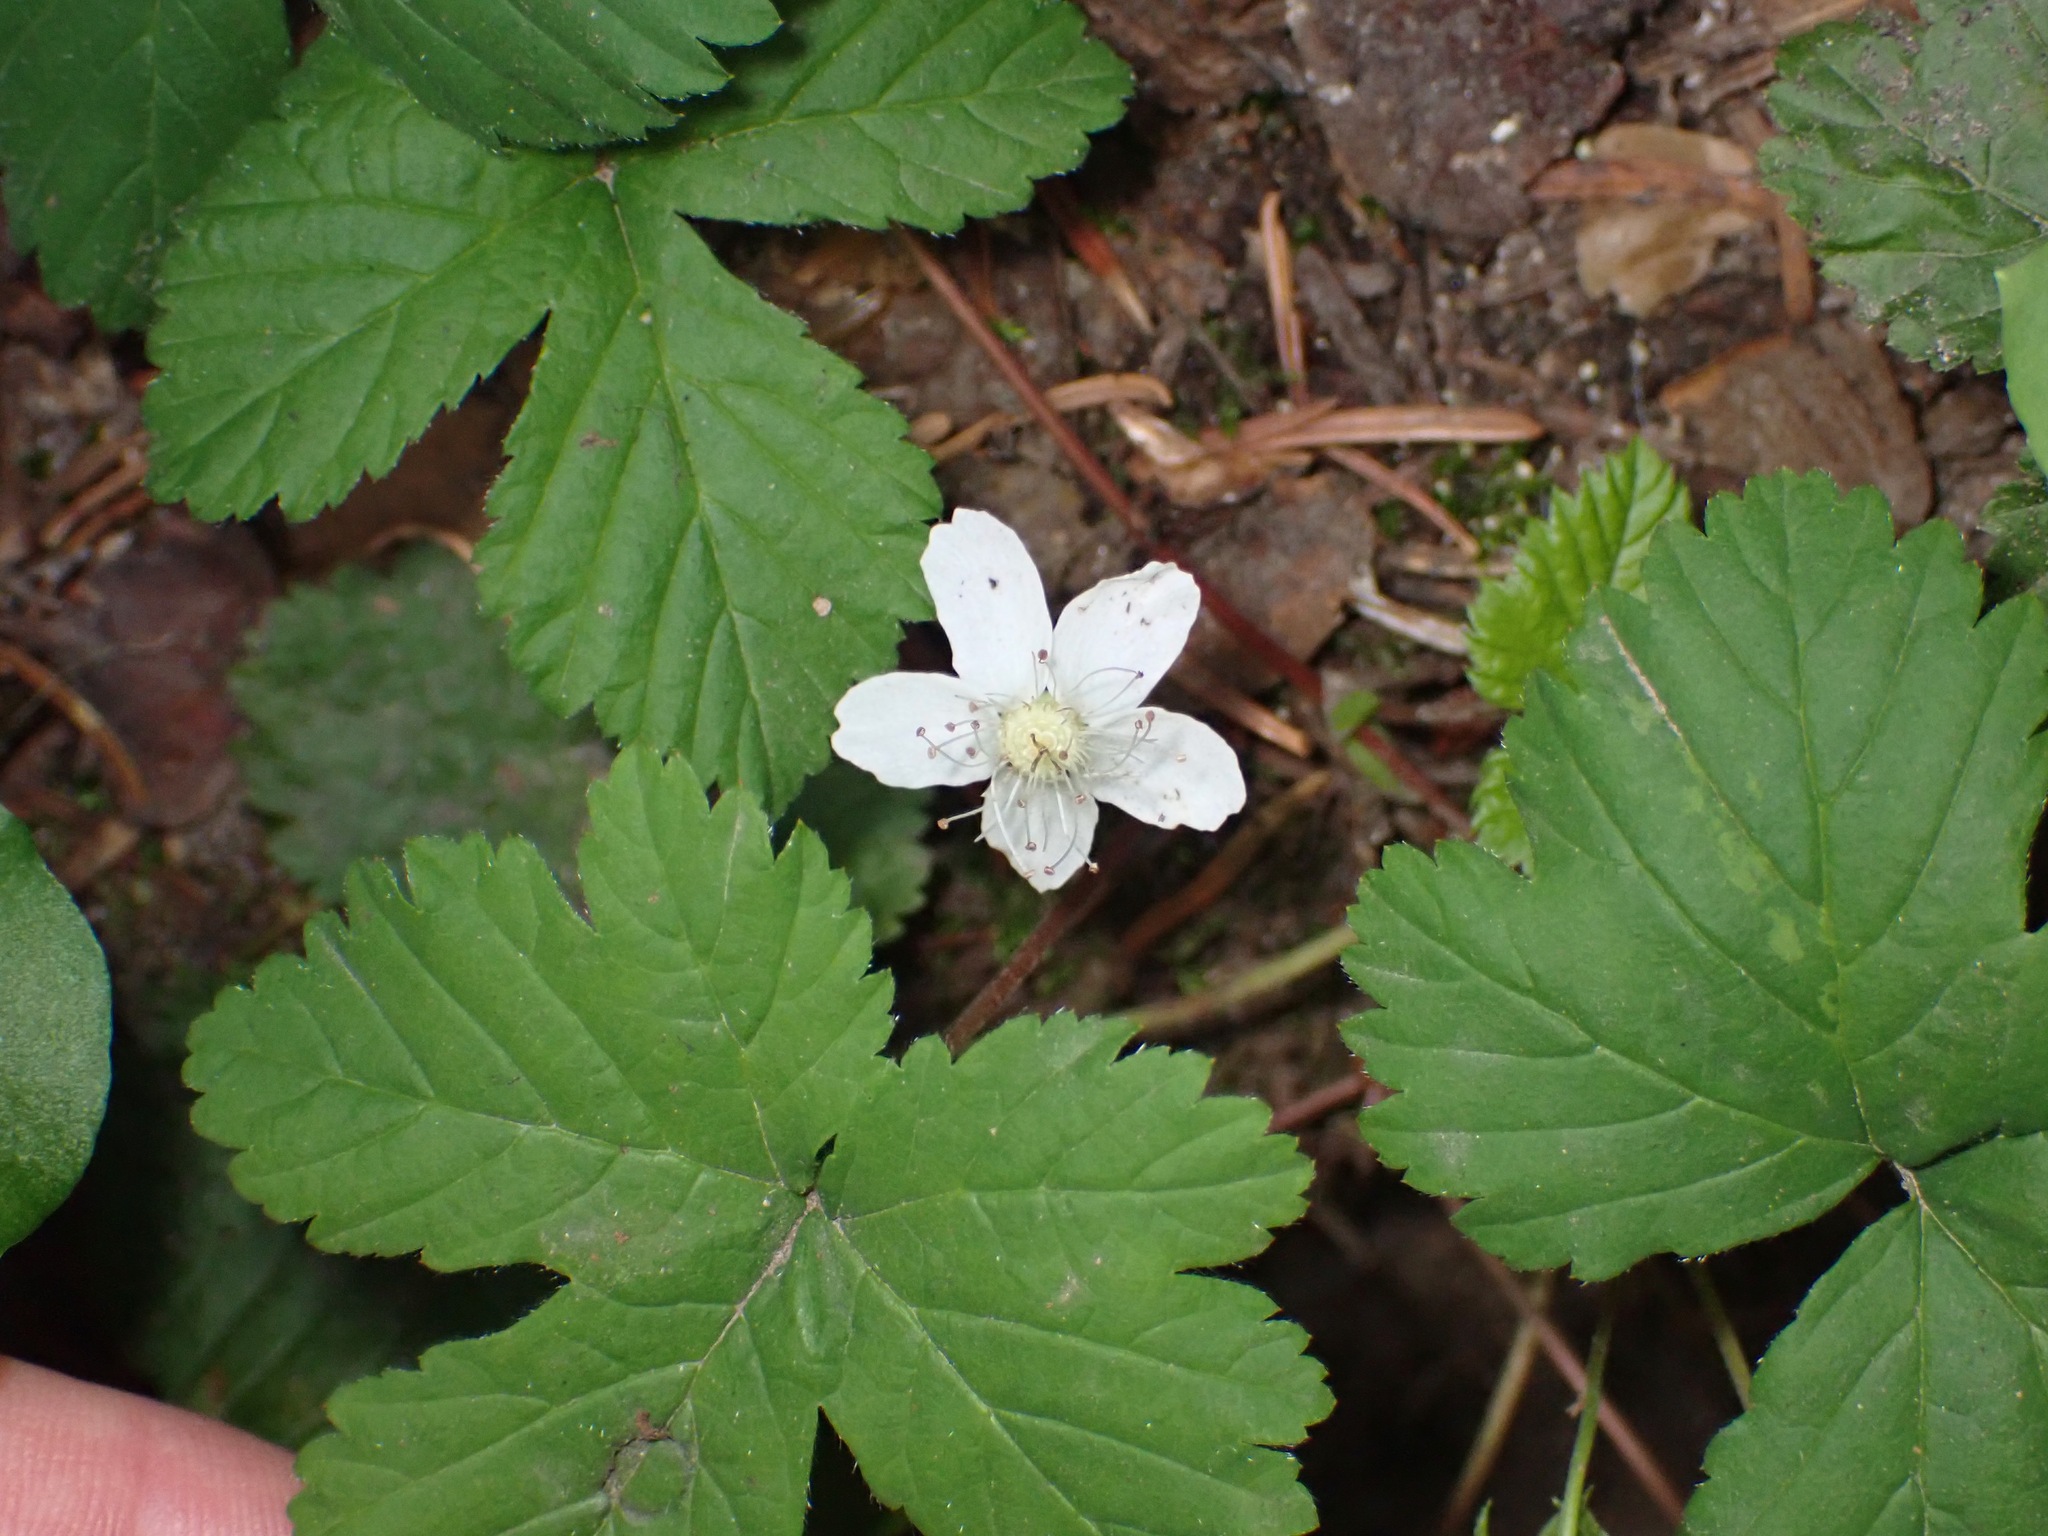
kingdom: Plantae
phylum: Tracheophyta
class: Magnoliopsida
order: Rosales
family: Rosaceae
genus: Rubus
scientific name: Rubus lasiococcus
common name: Dwarf bramble
